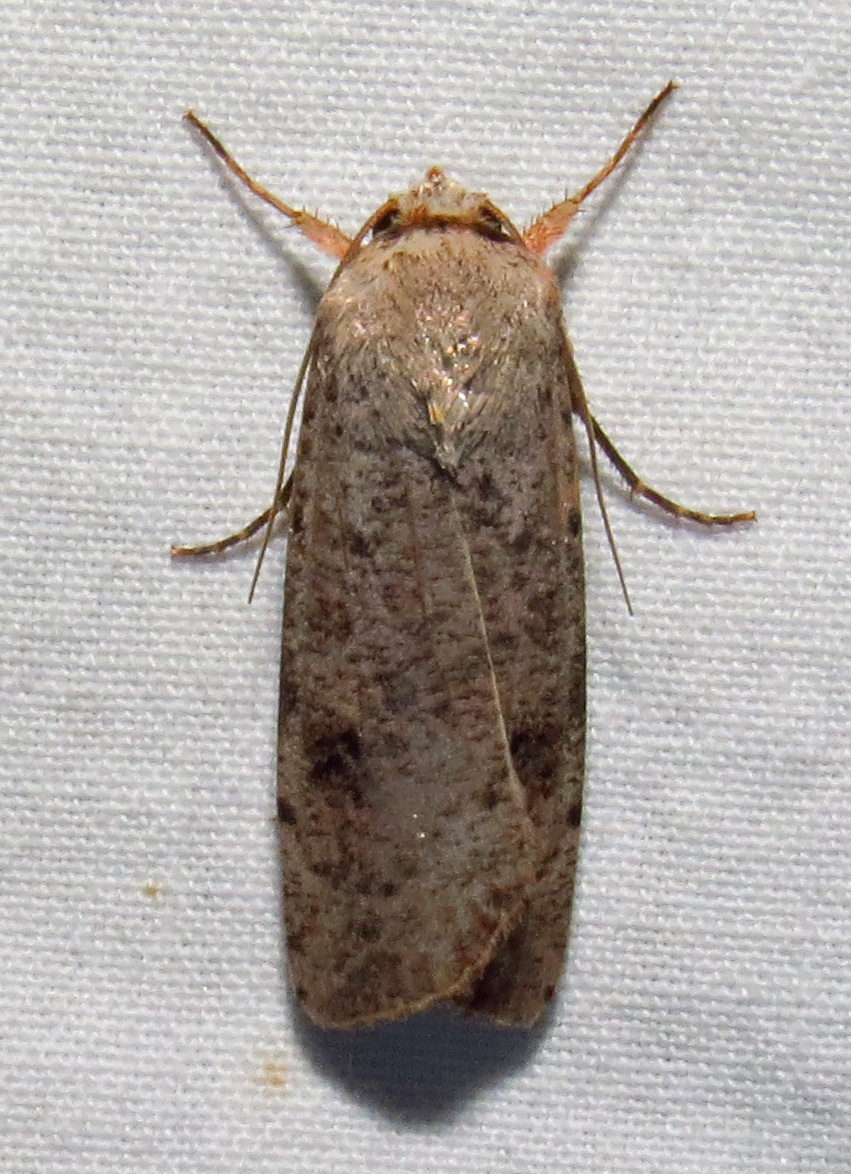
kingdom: Animalia
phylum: Arthropoda
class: Insecta
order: Lepidoptera
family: Noctuidae
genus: Anicla
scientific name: Anicla infecta
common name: Green cutworm
